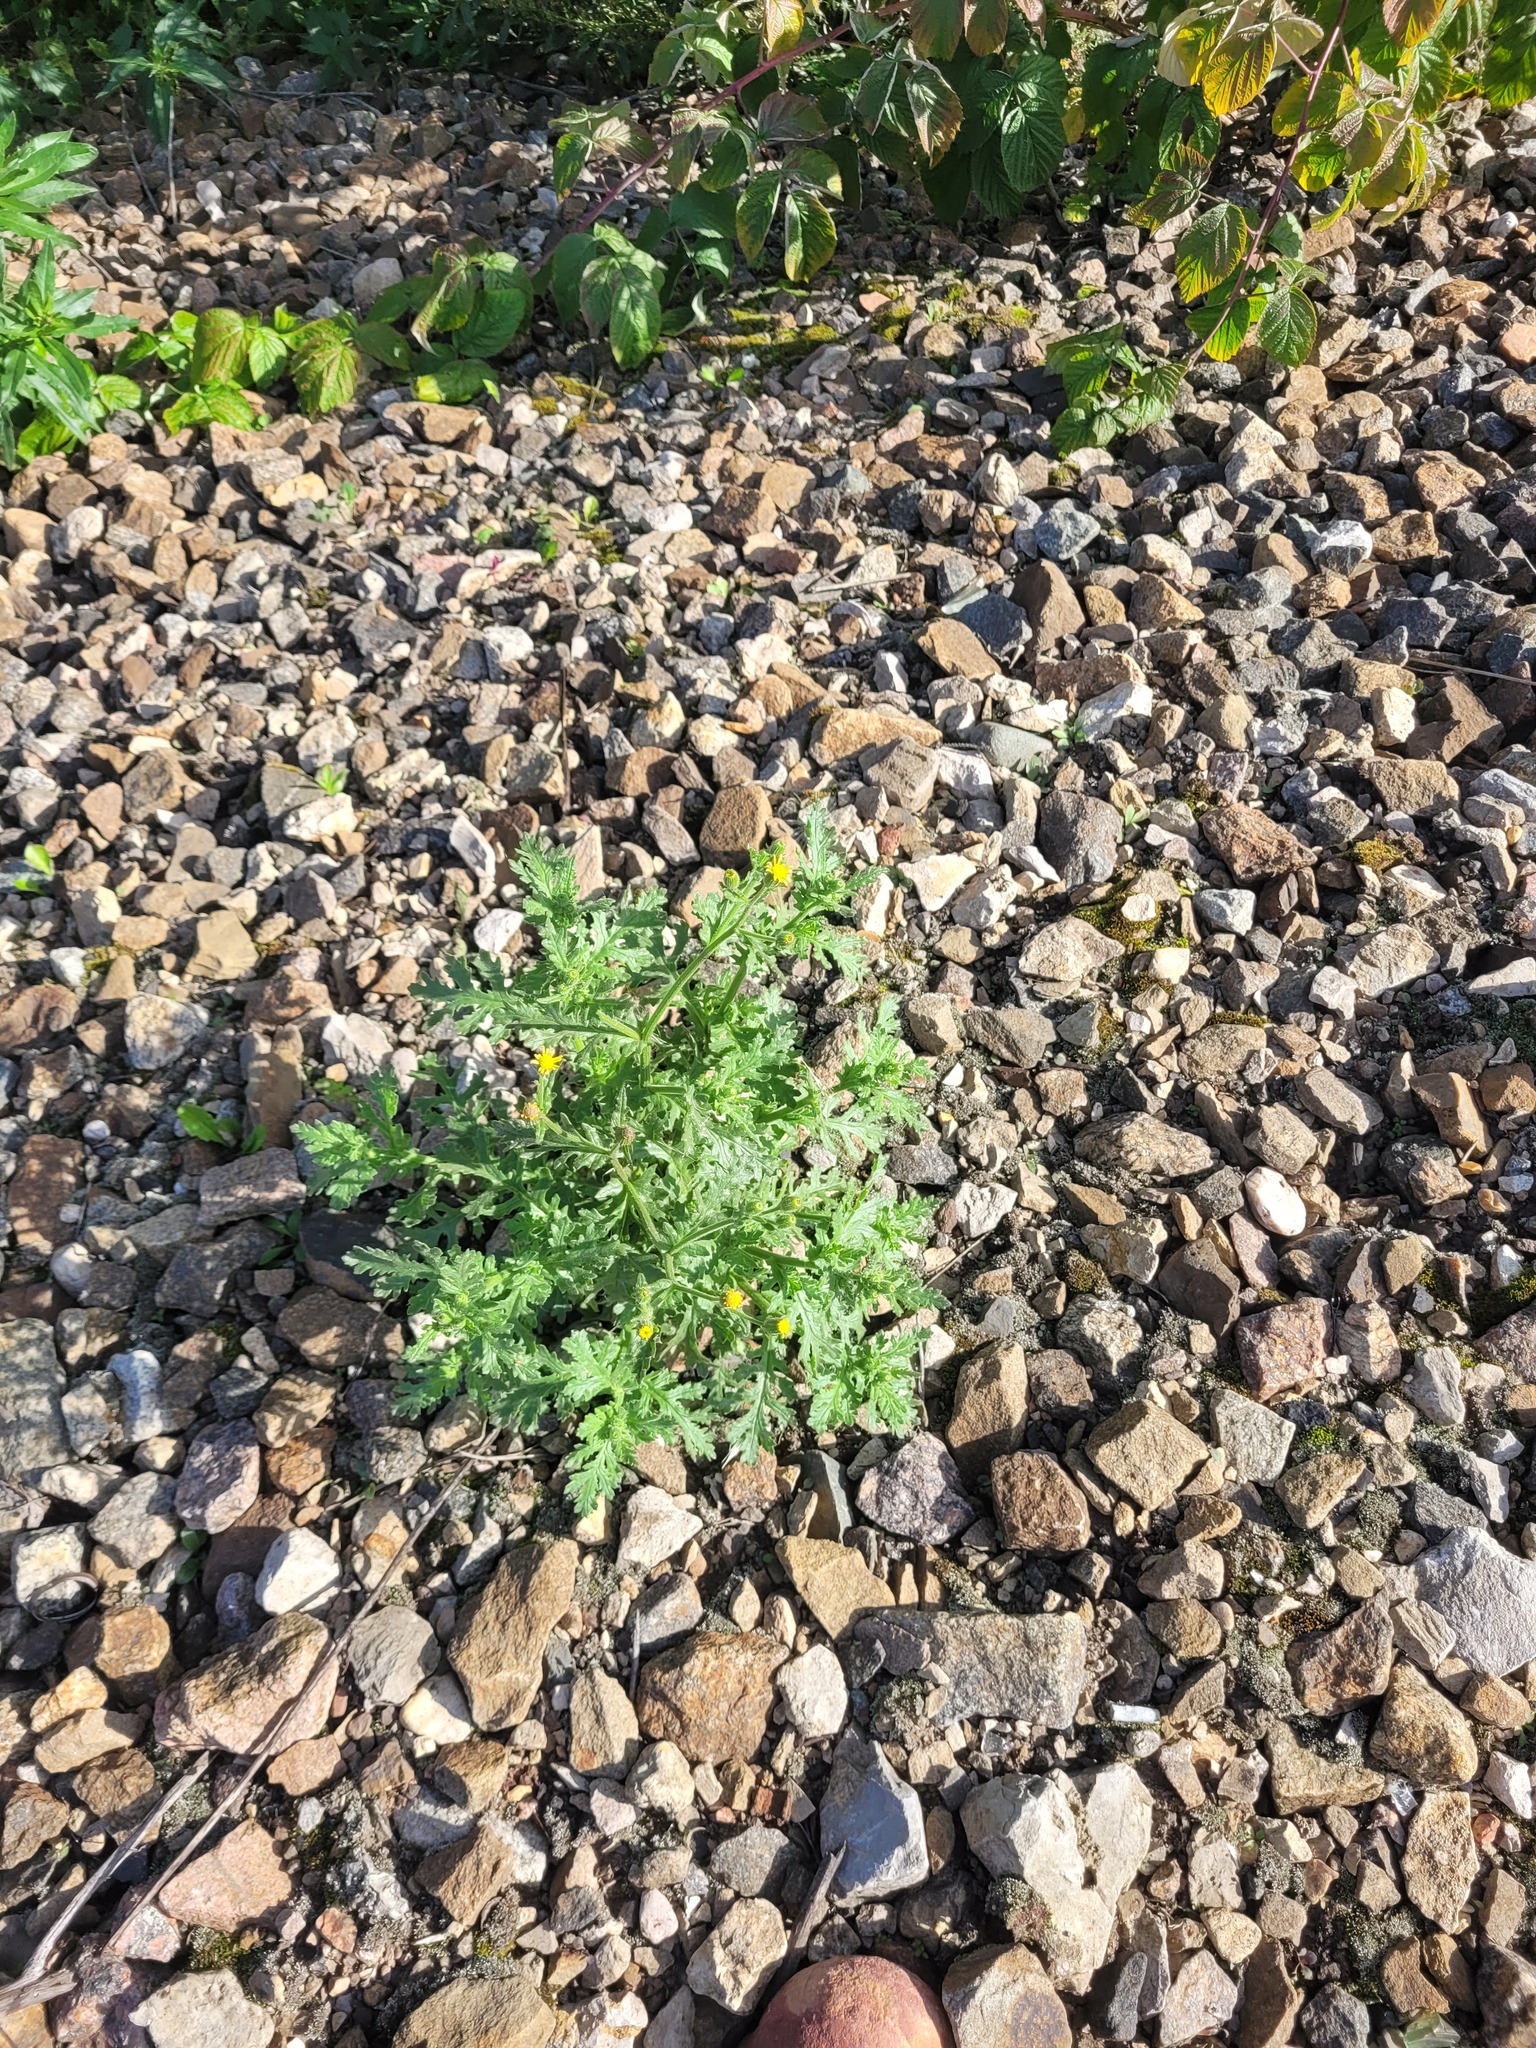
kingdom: Plantae
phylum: Tracheophyta
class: Magnoliopsida
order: Asterales
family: Asteraceae
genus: Senecio
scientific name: Senecio viscosus
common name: Sticky groundsel
